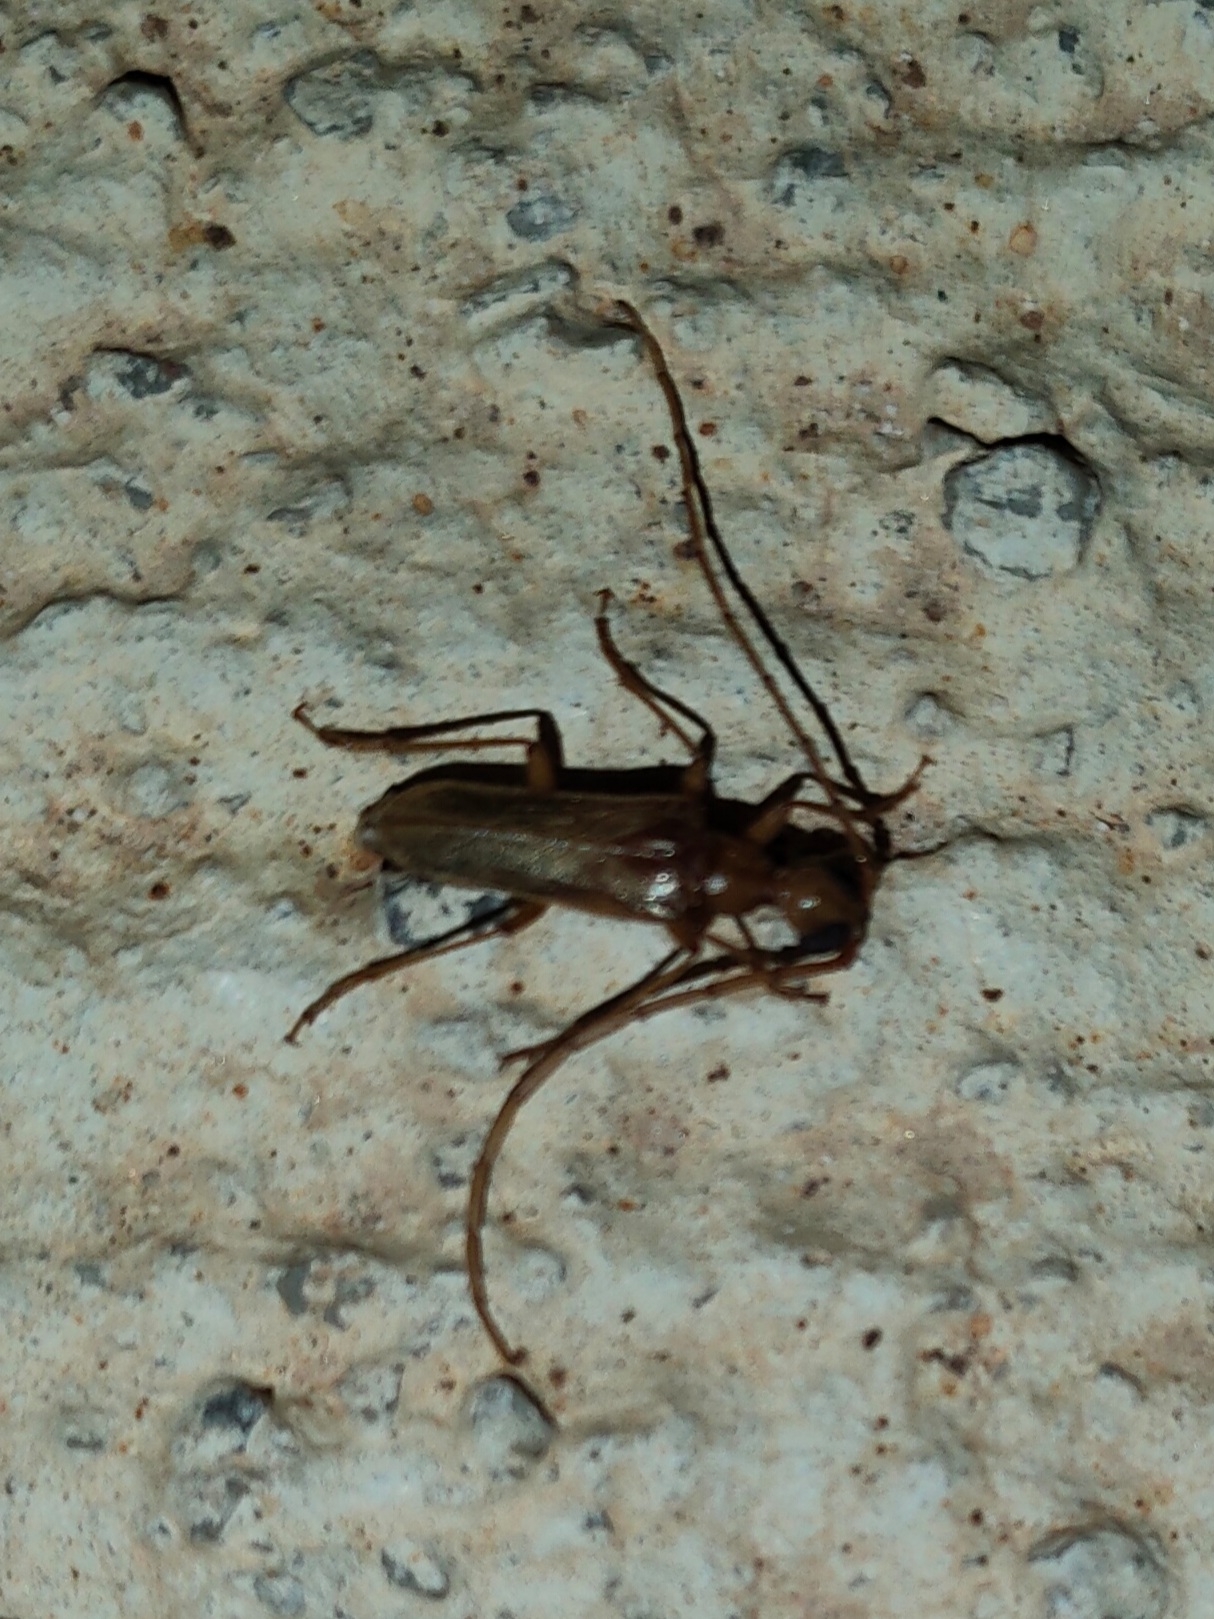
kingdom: Animalia
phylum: Arthropoda
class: Insecta
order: Coleoptera
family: Cerambycidae
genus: Vesperus
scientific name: Vesperus flaveolus
